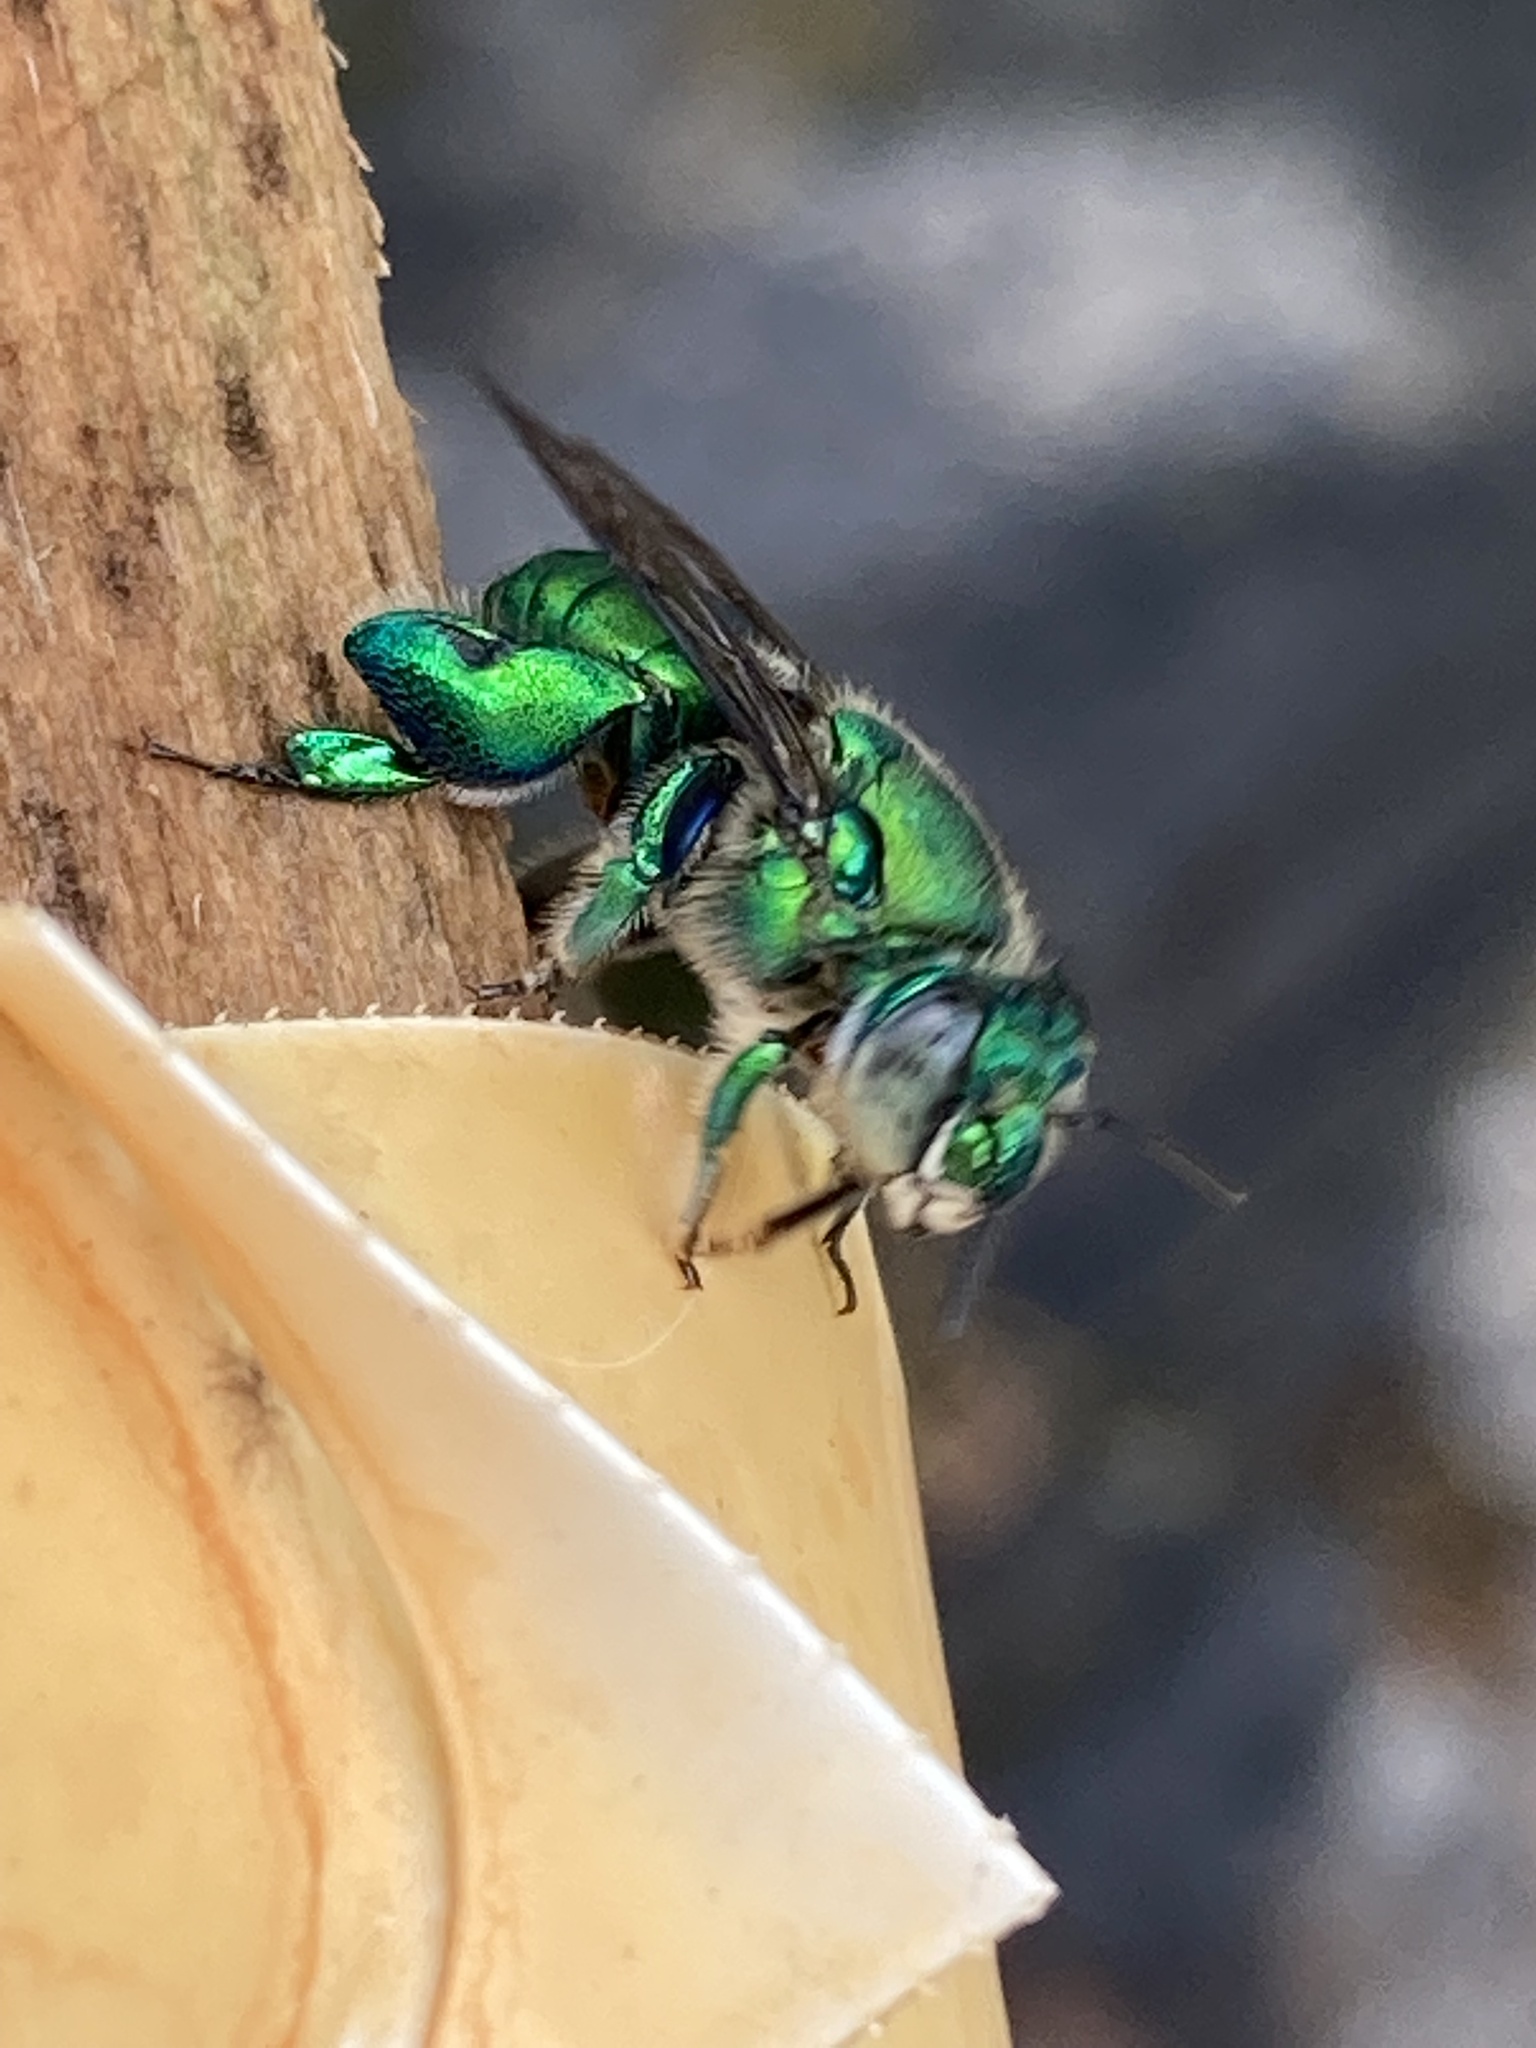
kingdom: Animalia
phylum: Arthropoda
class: Insecta
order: Hymenoptera
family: Apidae
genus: Euglossa
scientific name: Euglossa dilemma
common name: Green orchid bee
